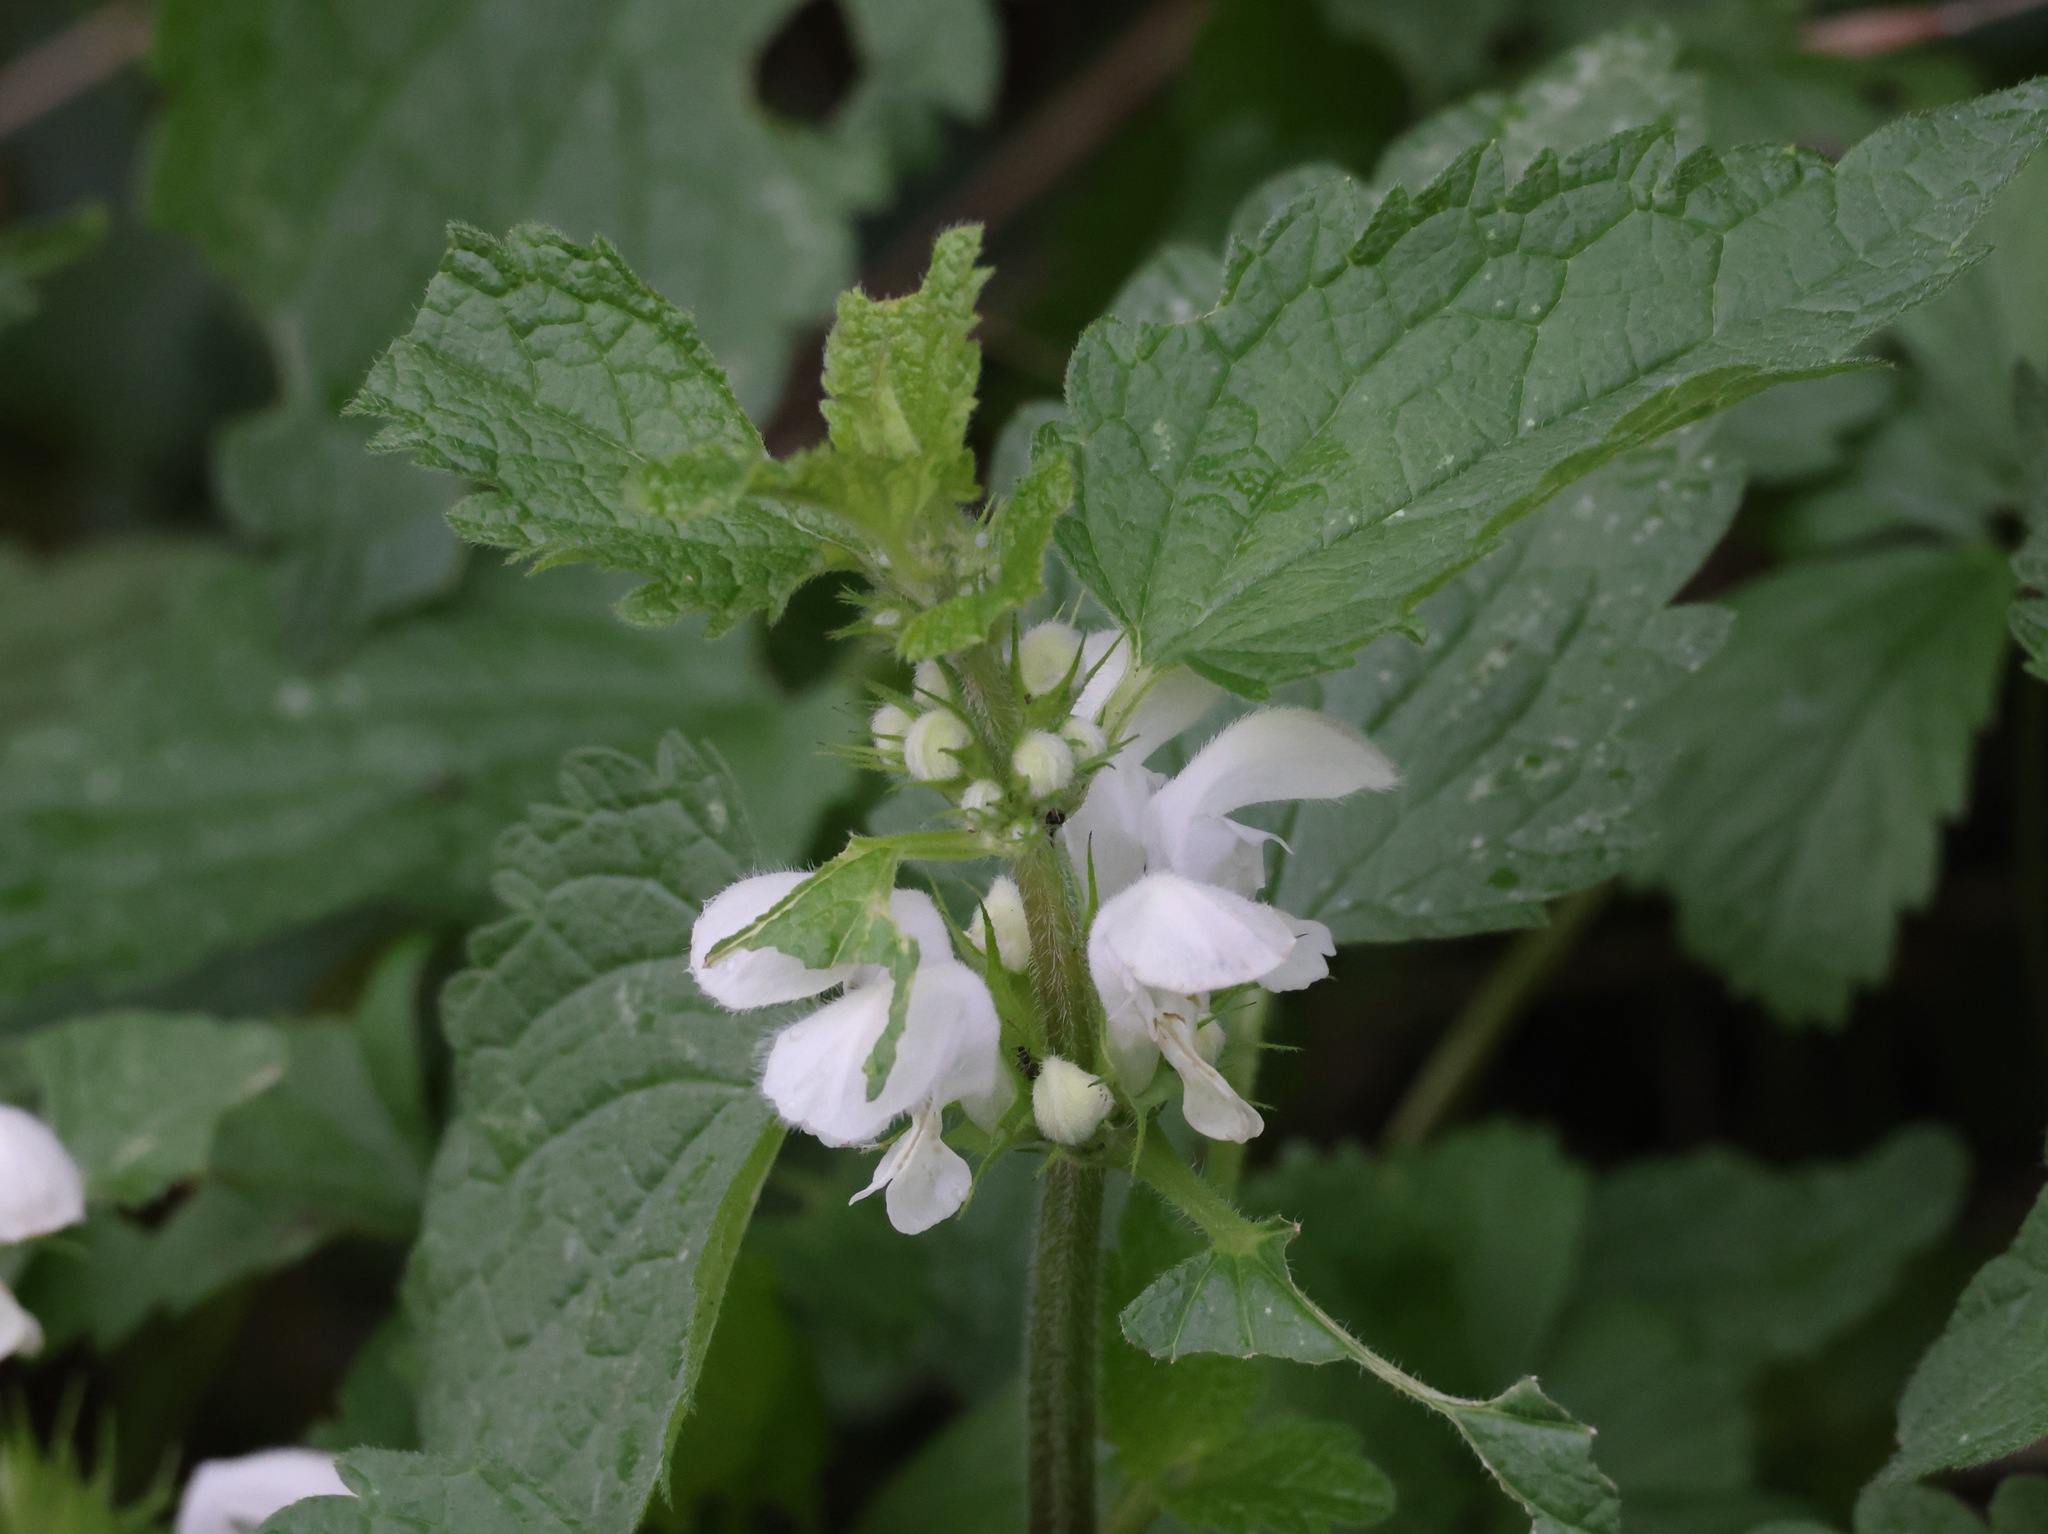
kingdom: Plantae
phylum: Tracheophyta
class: Magnoliopsida
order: Lamiales
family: Lamiaceae
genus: Lamium
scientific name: Lamium album
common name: White dead-nettle
